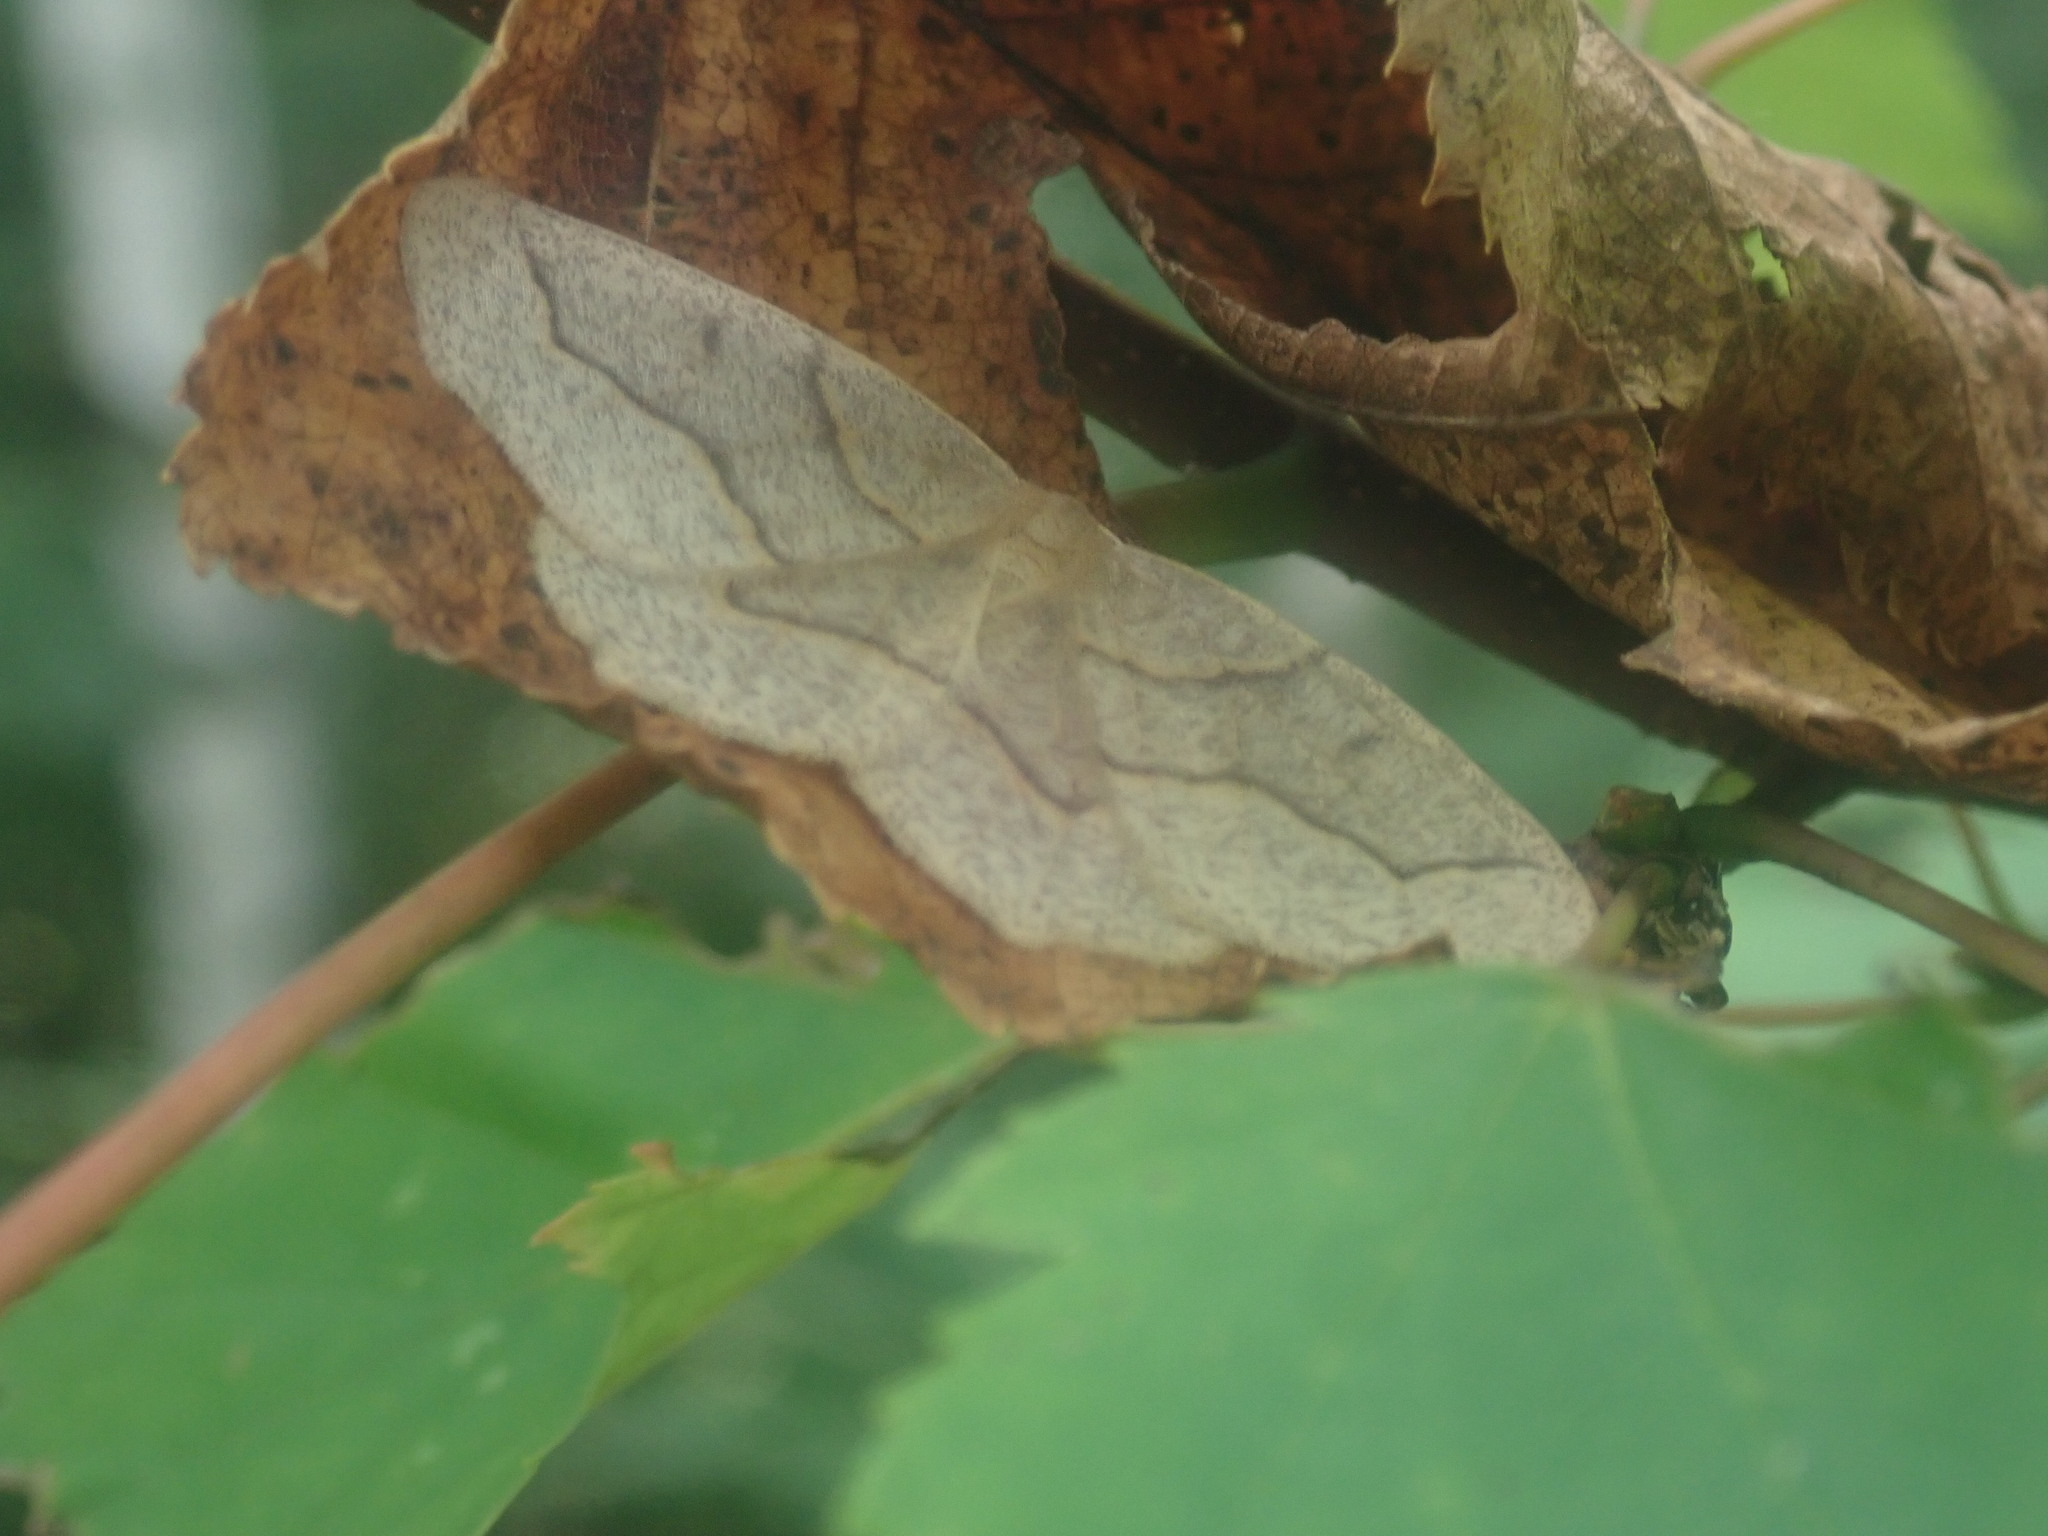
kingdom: Animalia
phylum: Arthropoda
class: Insecta
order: Lepidoptera
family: Geometridae
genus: Lambdina
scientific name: Lambdina fiscellaria
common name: Hemlock looper
